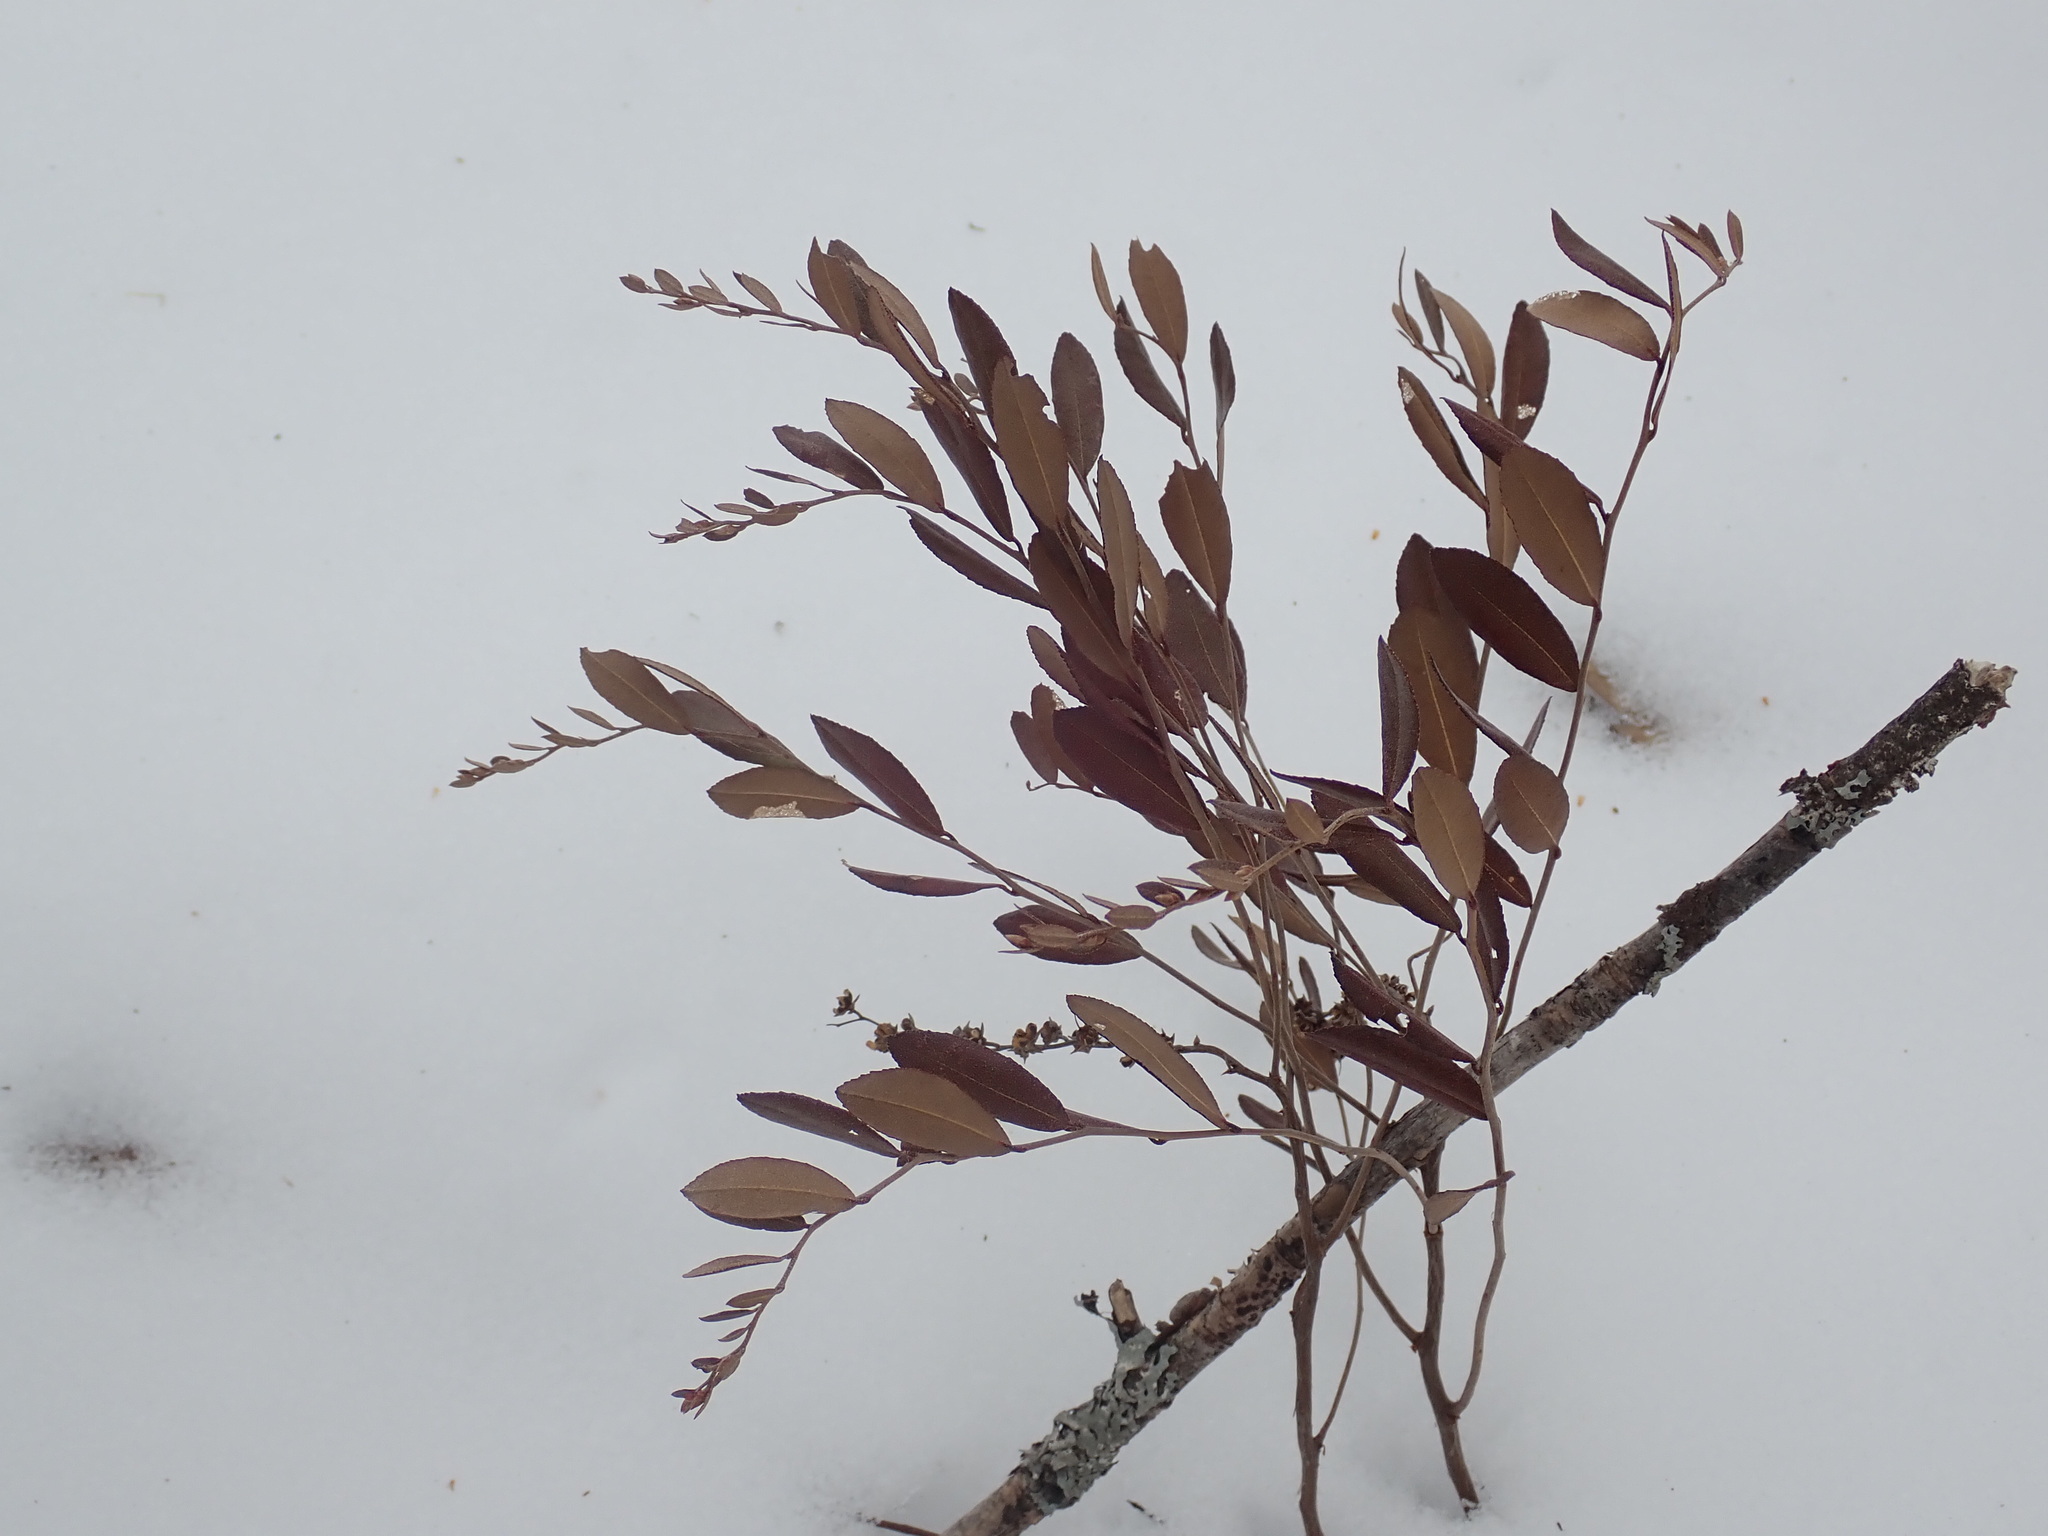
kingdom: Plantae
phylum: Tracheophyta
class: Magnoliopsida
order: Ericales
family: Ericaceae
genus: Chamaedaphne
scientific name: Chamaedaphne calyculata
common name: Leatherleaf
